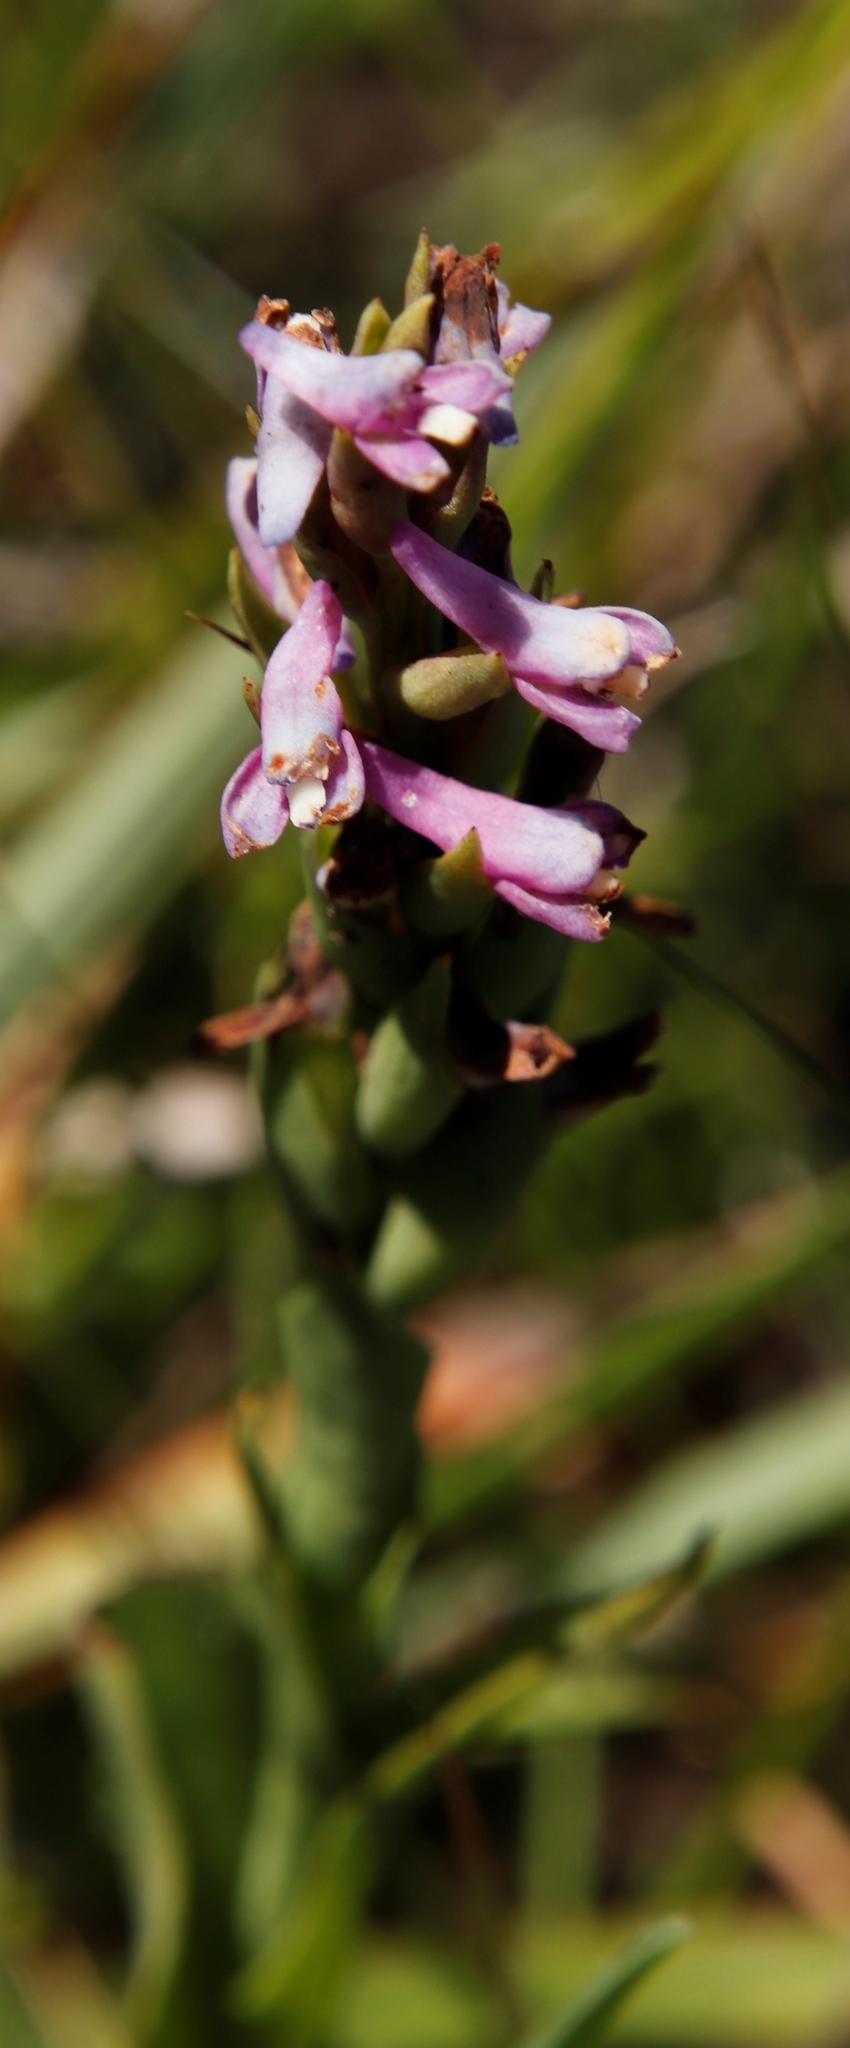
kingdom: Plantae
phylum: Tracheophyta
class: Liliopsida
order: Asparagales
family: Orchidaceae
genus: Disa
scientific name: Disa stachyoides
